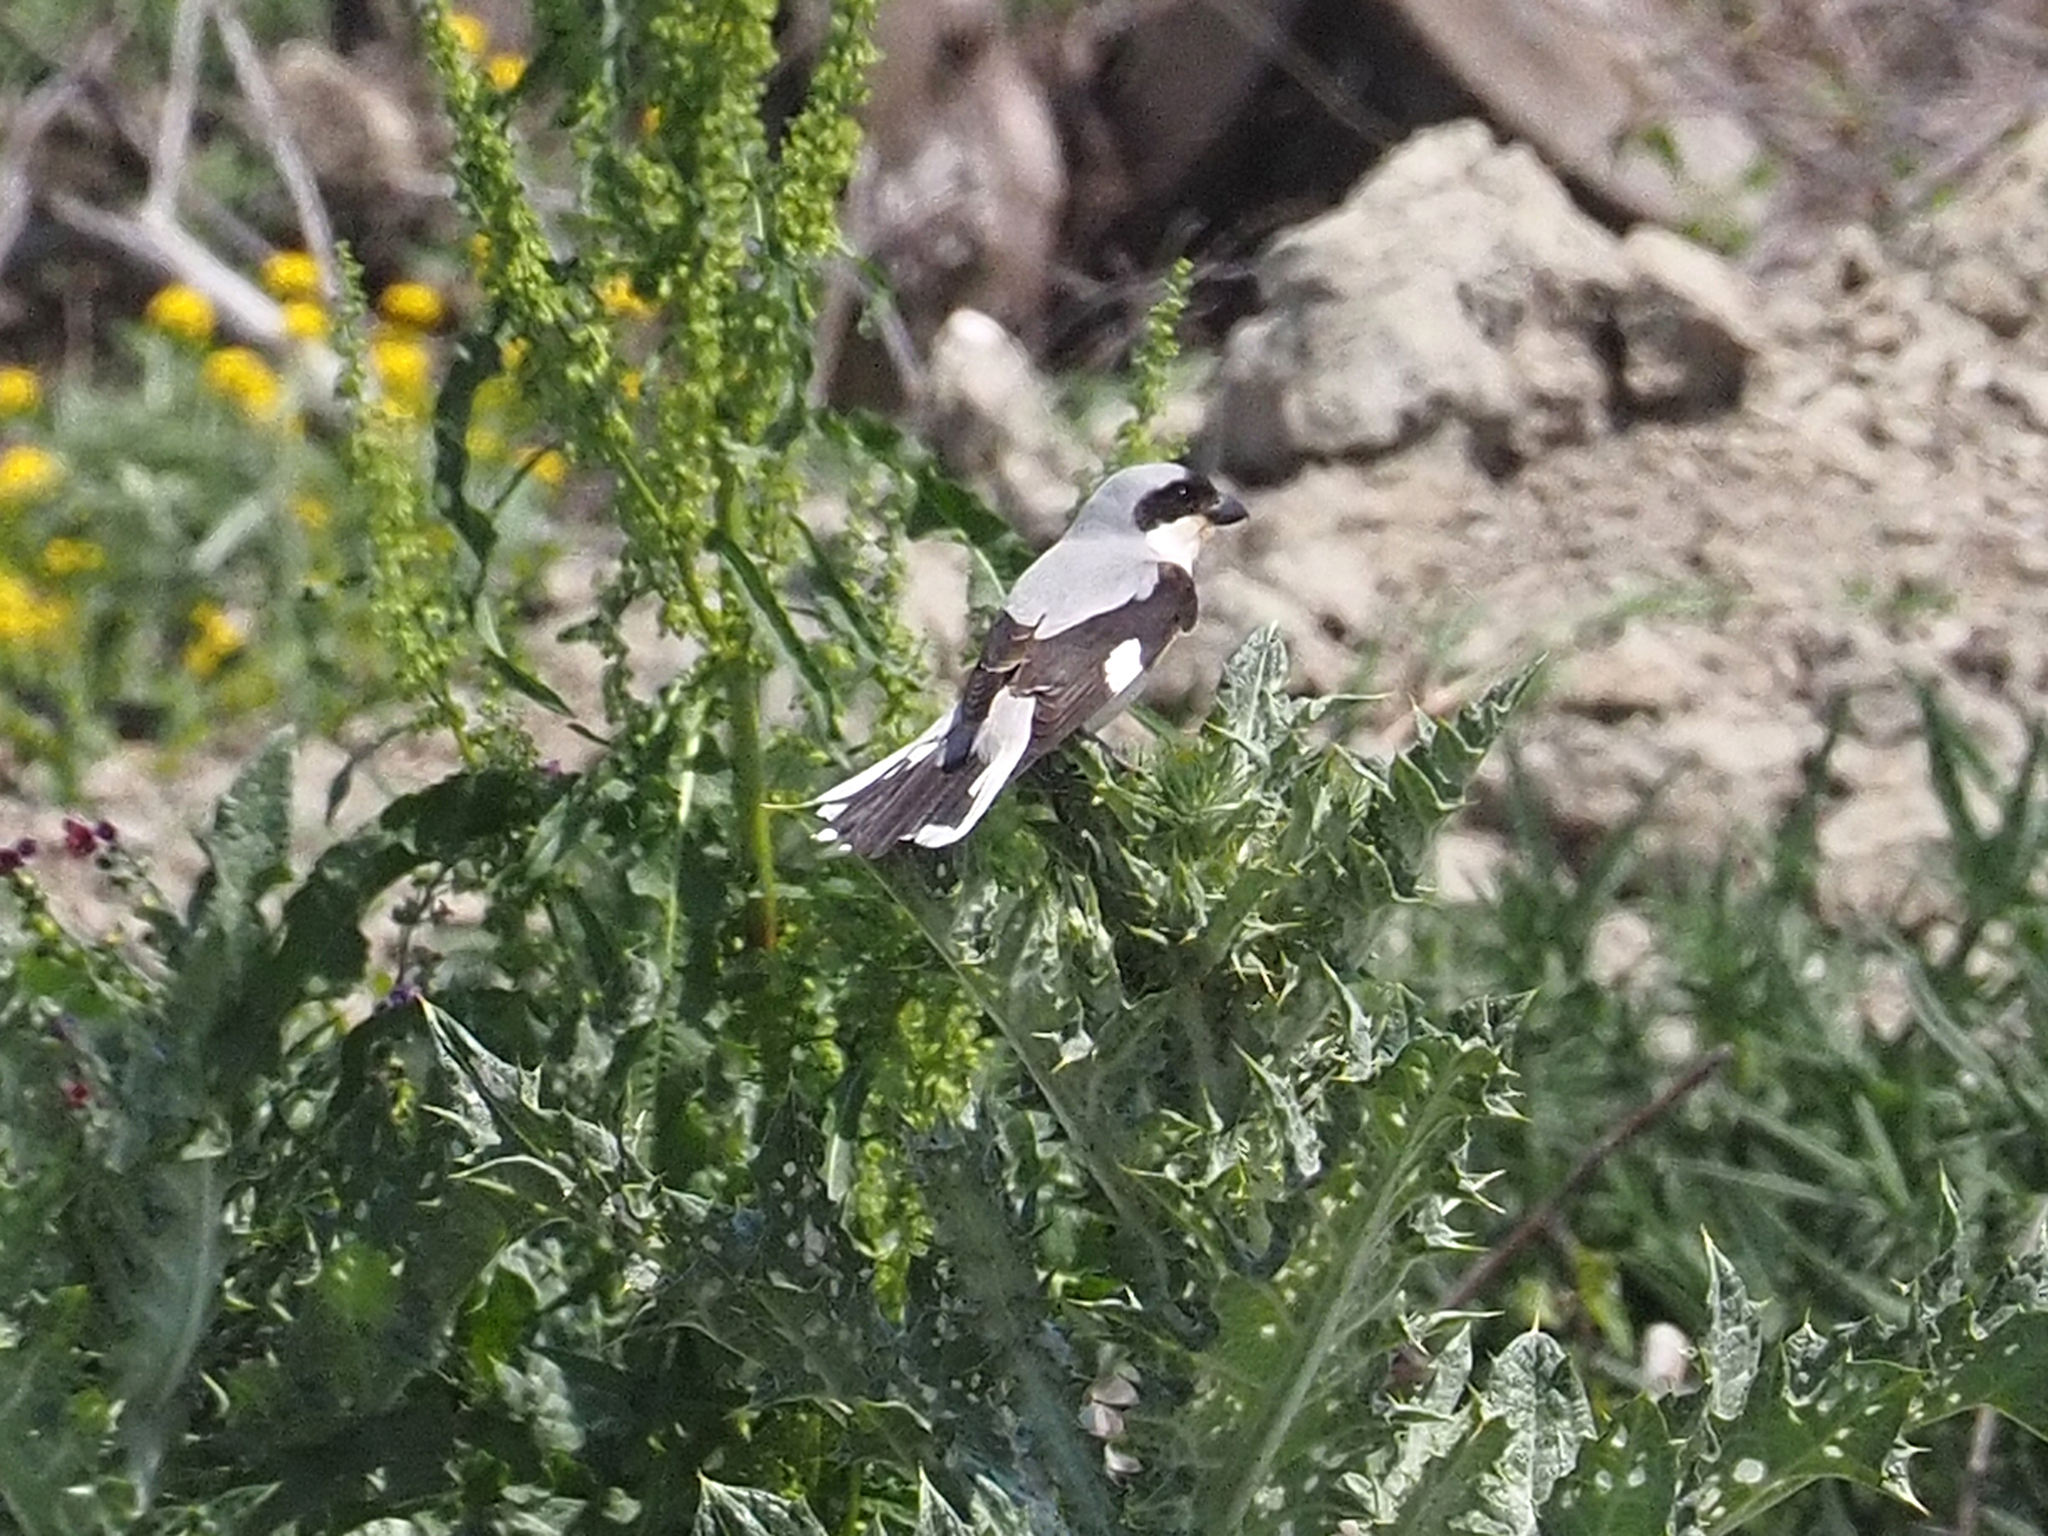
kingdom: Animalia
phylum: Chordata
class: Aves
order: Passeriformes
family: Laniidae
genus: Lanius
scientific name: Lanius minor
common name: Lesser grey shrike
